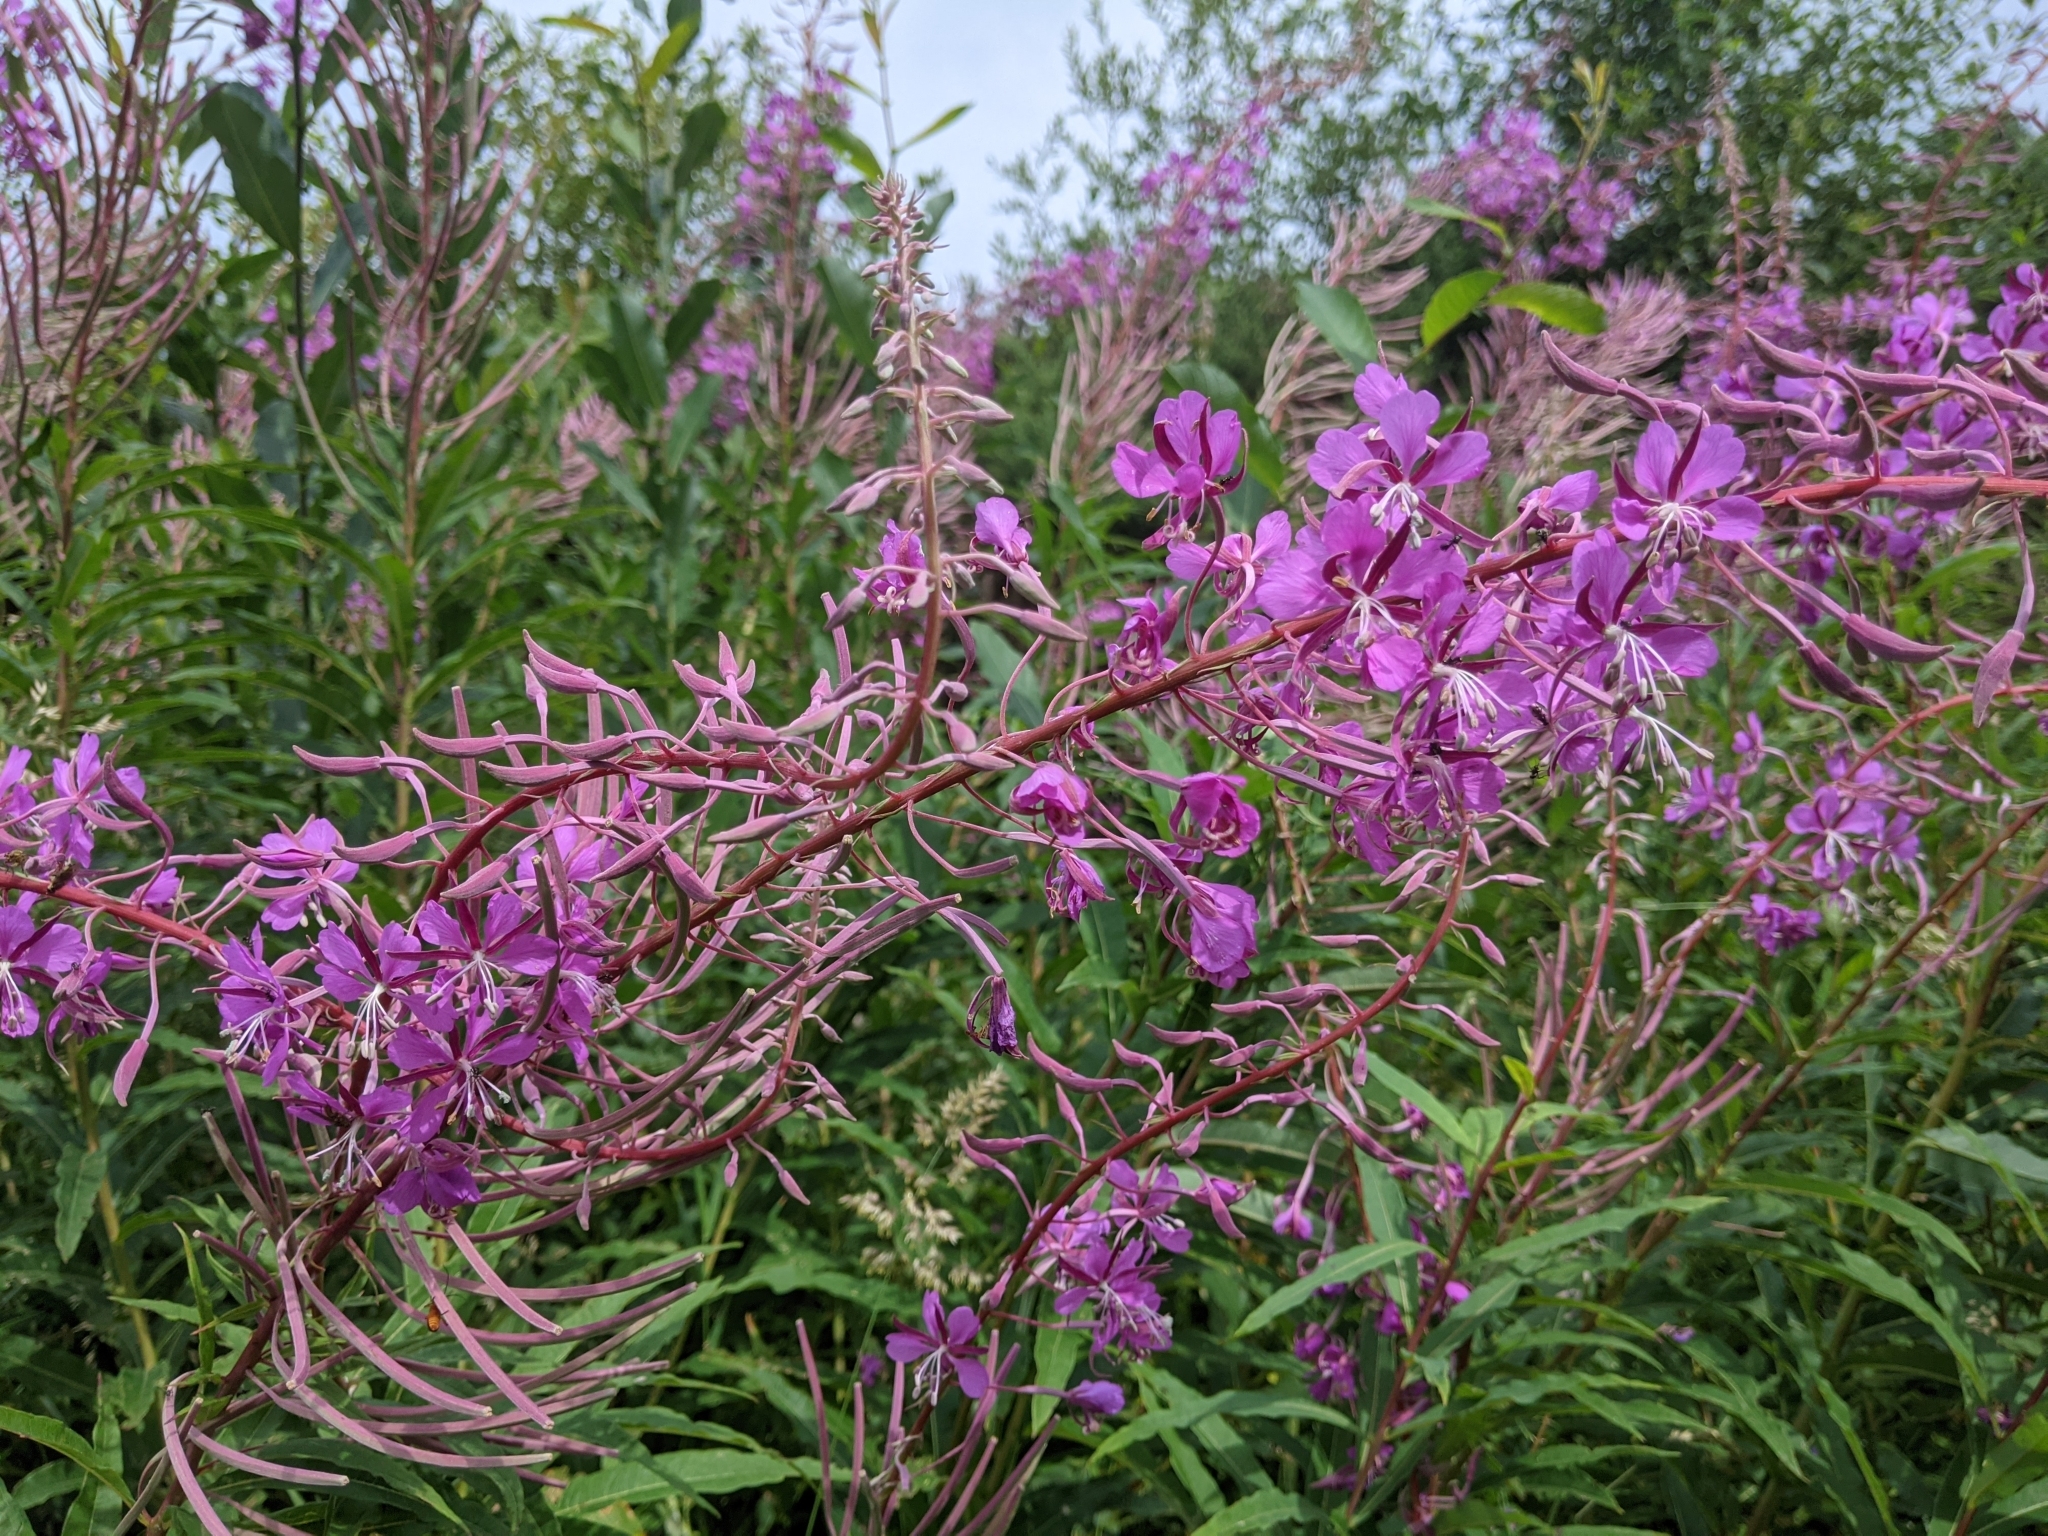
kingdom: Plantae
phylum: Tracheophyta
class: Magnoliopsida
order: Myrtales
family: Onagraceae
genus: Chamaenerion
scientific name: Chamaenerion angustifolium
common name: Fireweed
